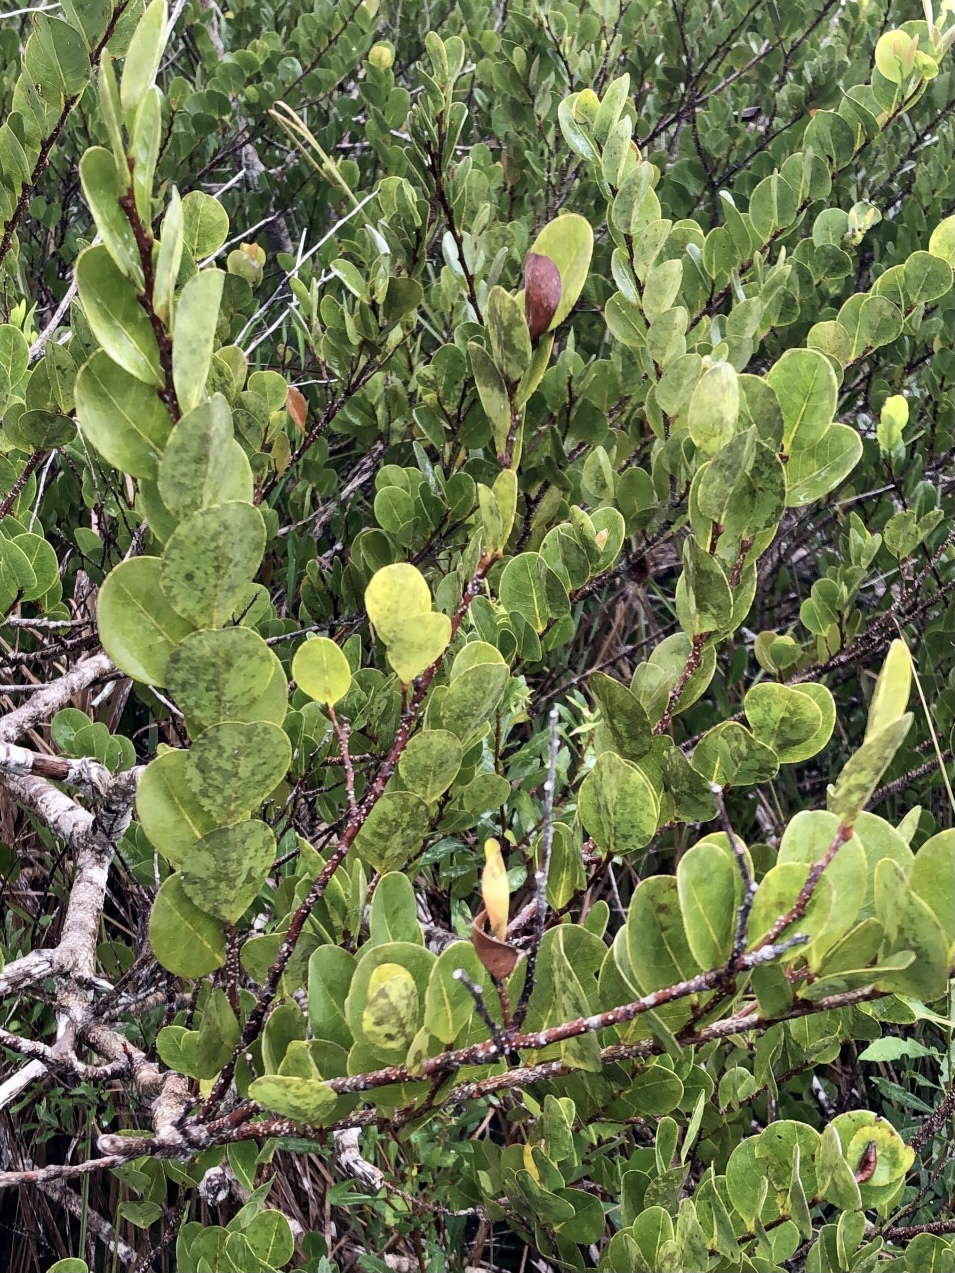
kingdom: Plantae
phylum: Tracheophyta
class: Magnoliopsida
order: Malpighiales
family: Chrysobalanaceae
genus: Chrysobalanus
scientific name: Chrysobalanus icaco
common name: Coco plum
